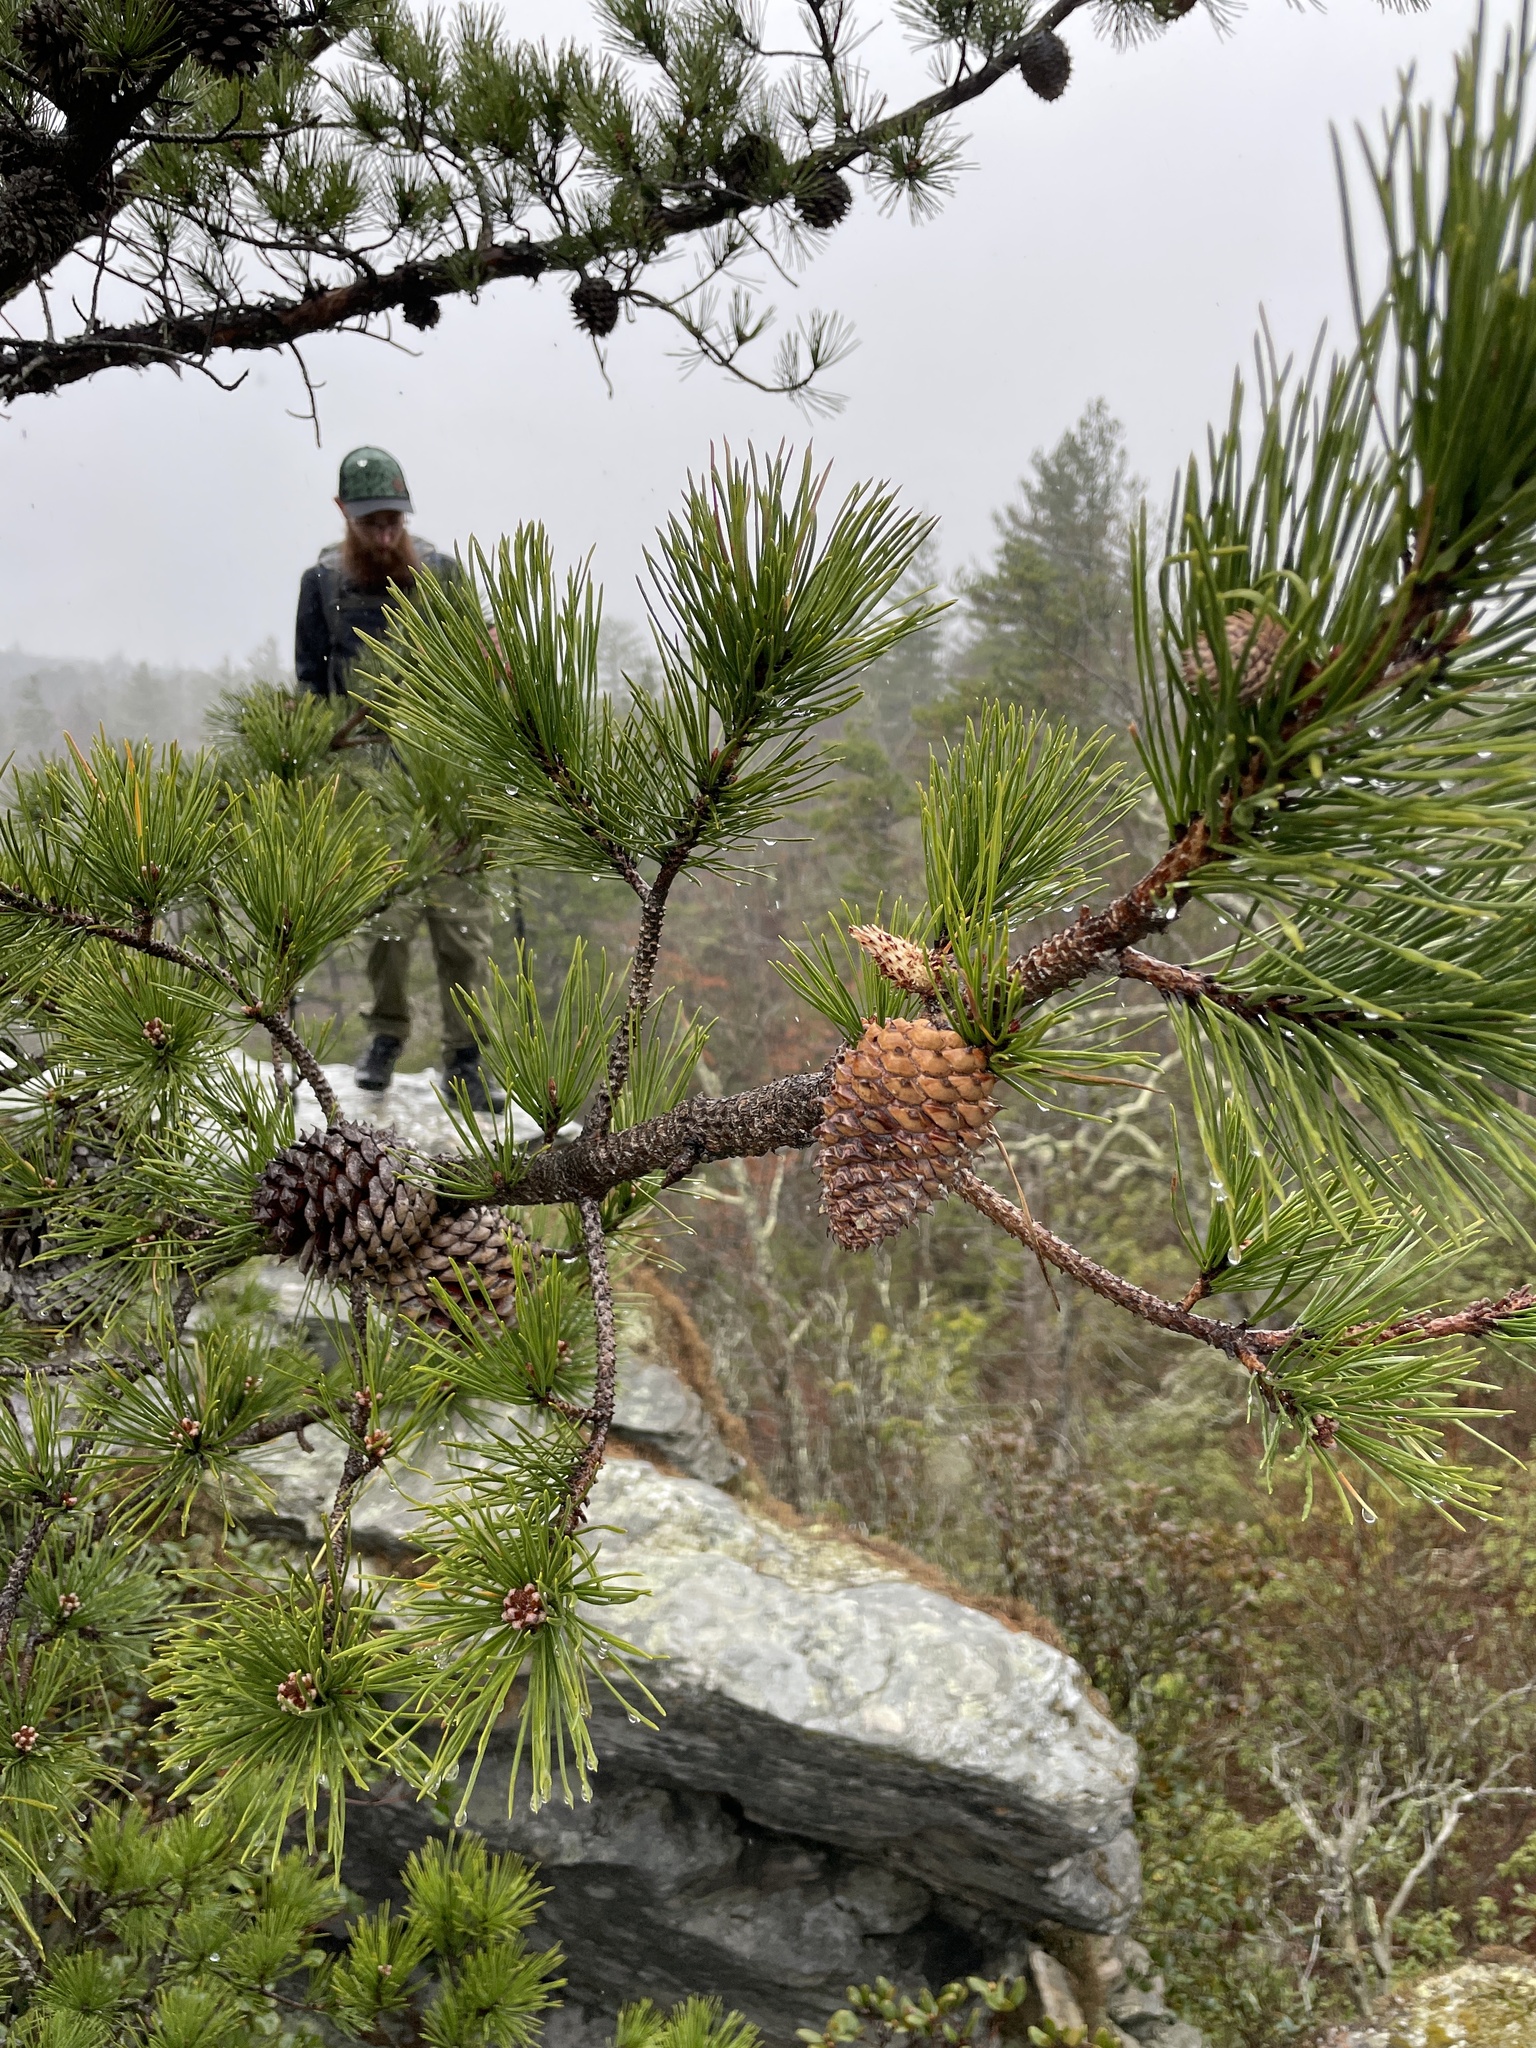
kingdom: Plantae
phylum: Tracheophyta
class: Pinopsida
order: Pinales
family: Pinaceae
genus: Pinus
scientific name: Pinus pungens
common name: Hickory pine
